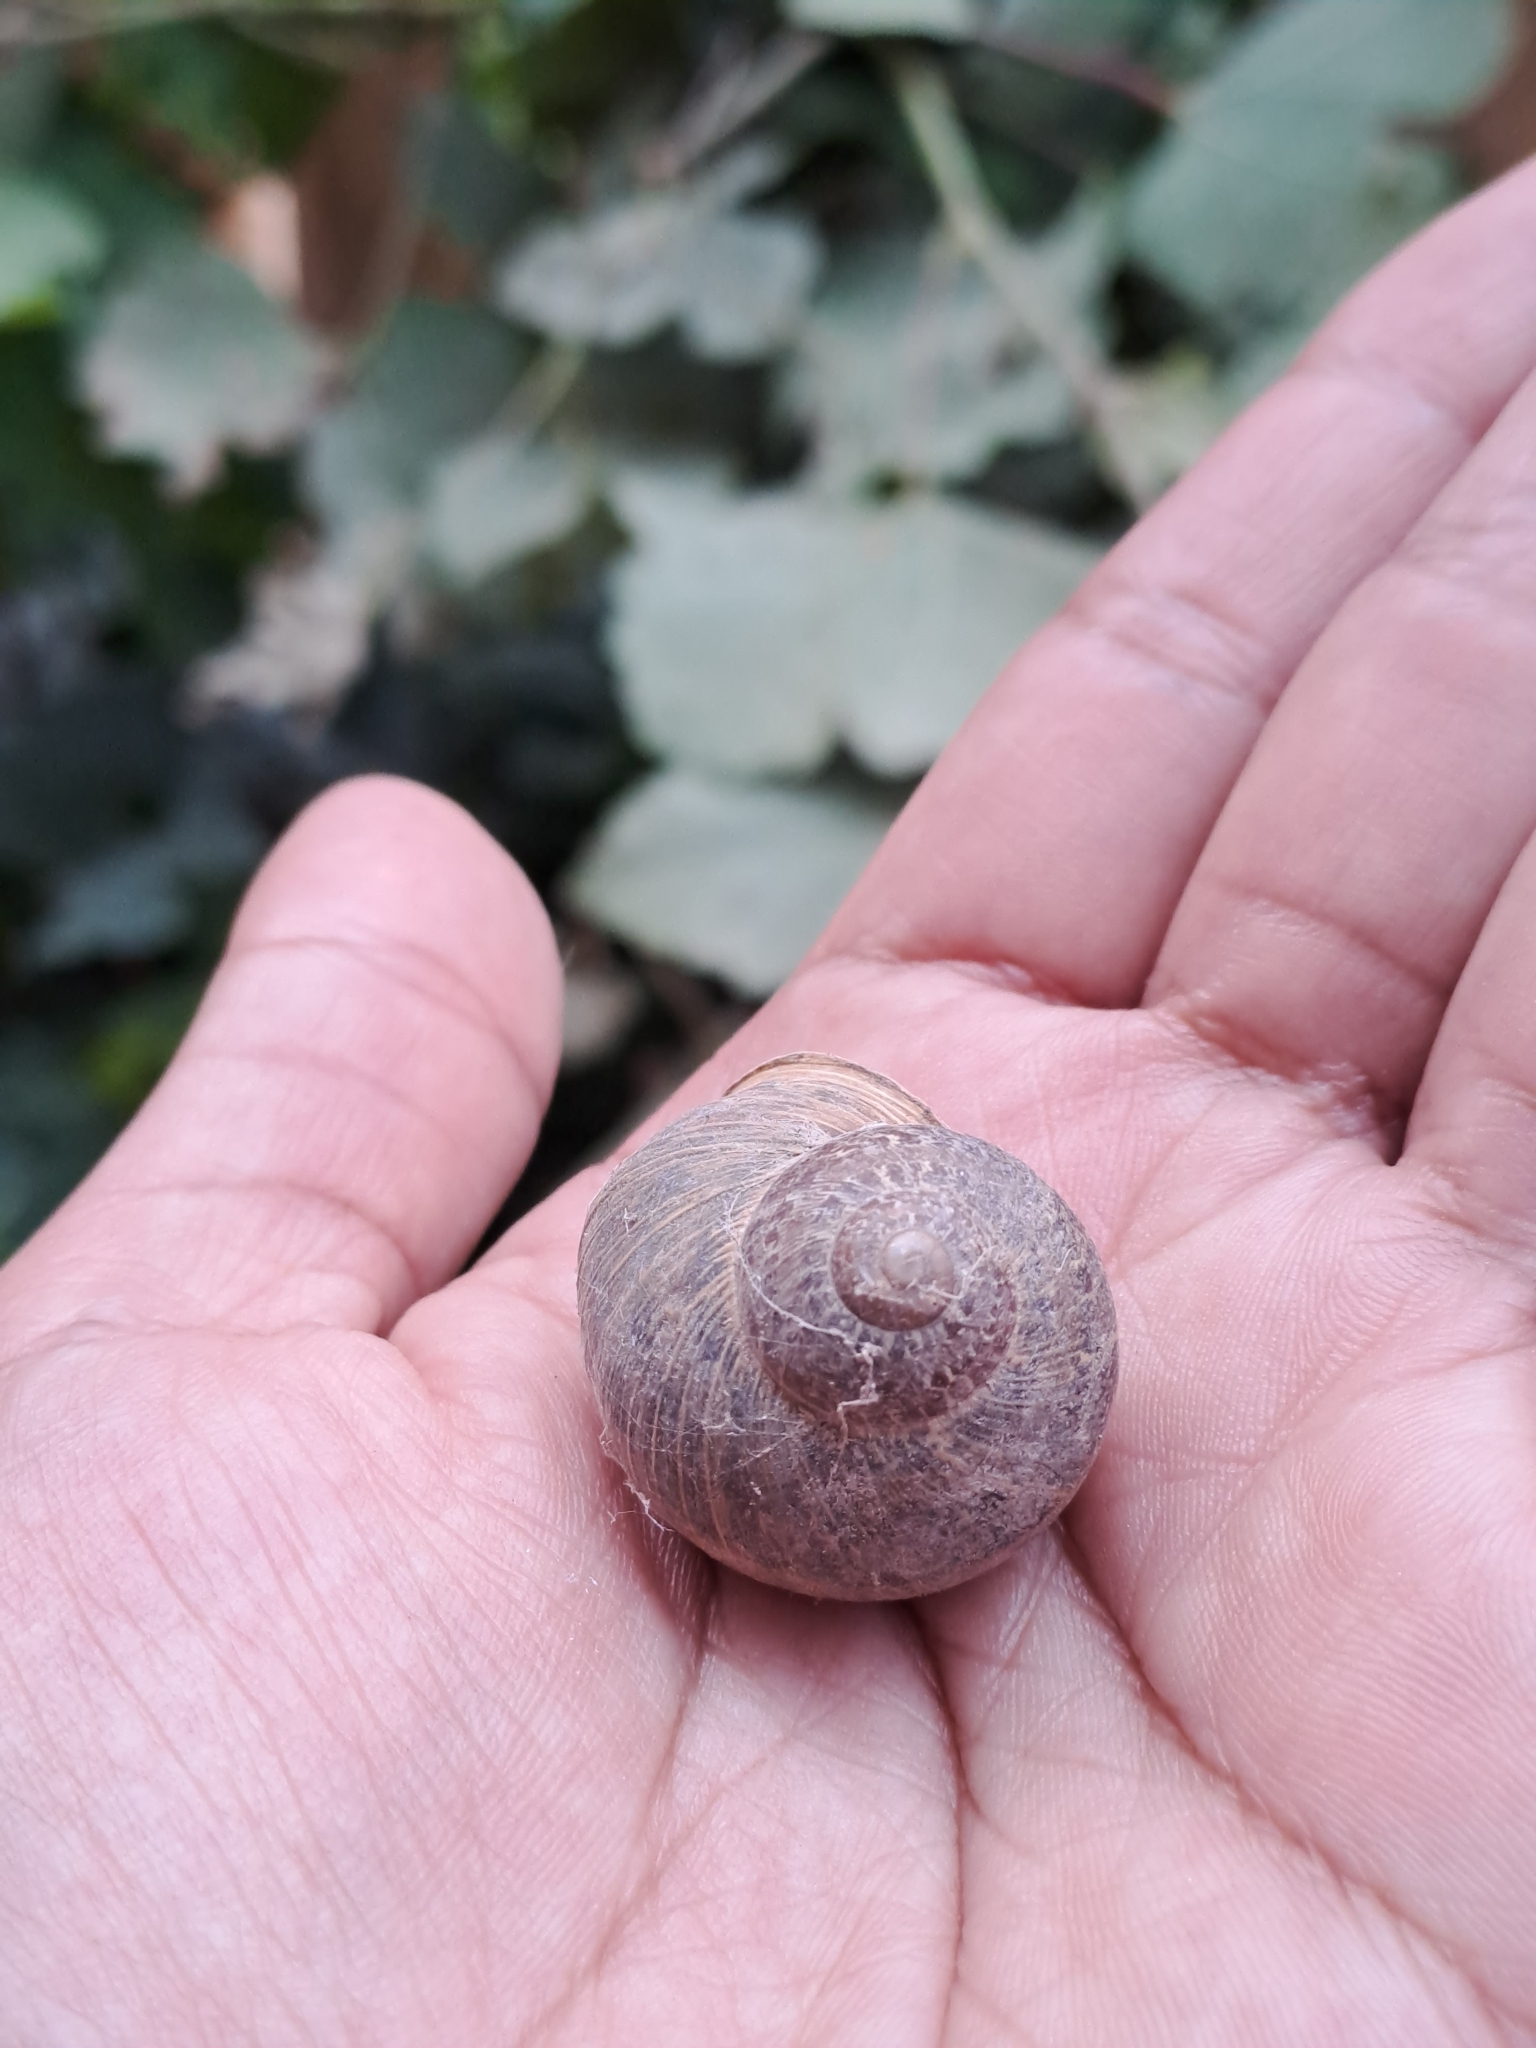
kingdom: Animalia
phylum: Mollusca
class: Gastropoda
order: Stylommatophora
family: Helicidae
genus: Cornu
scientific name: Cornu aspersum
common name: Brown garden snail
